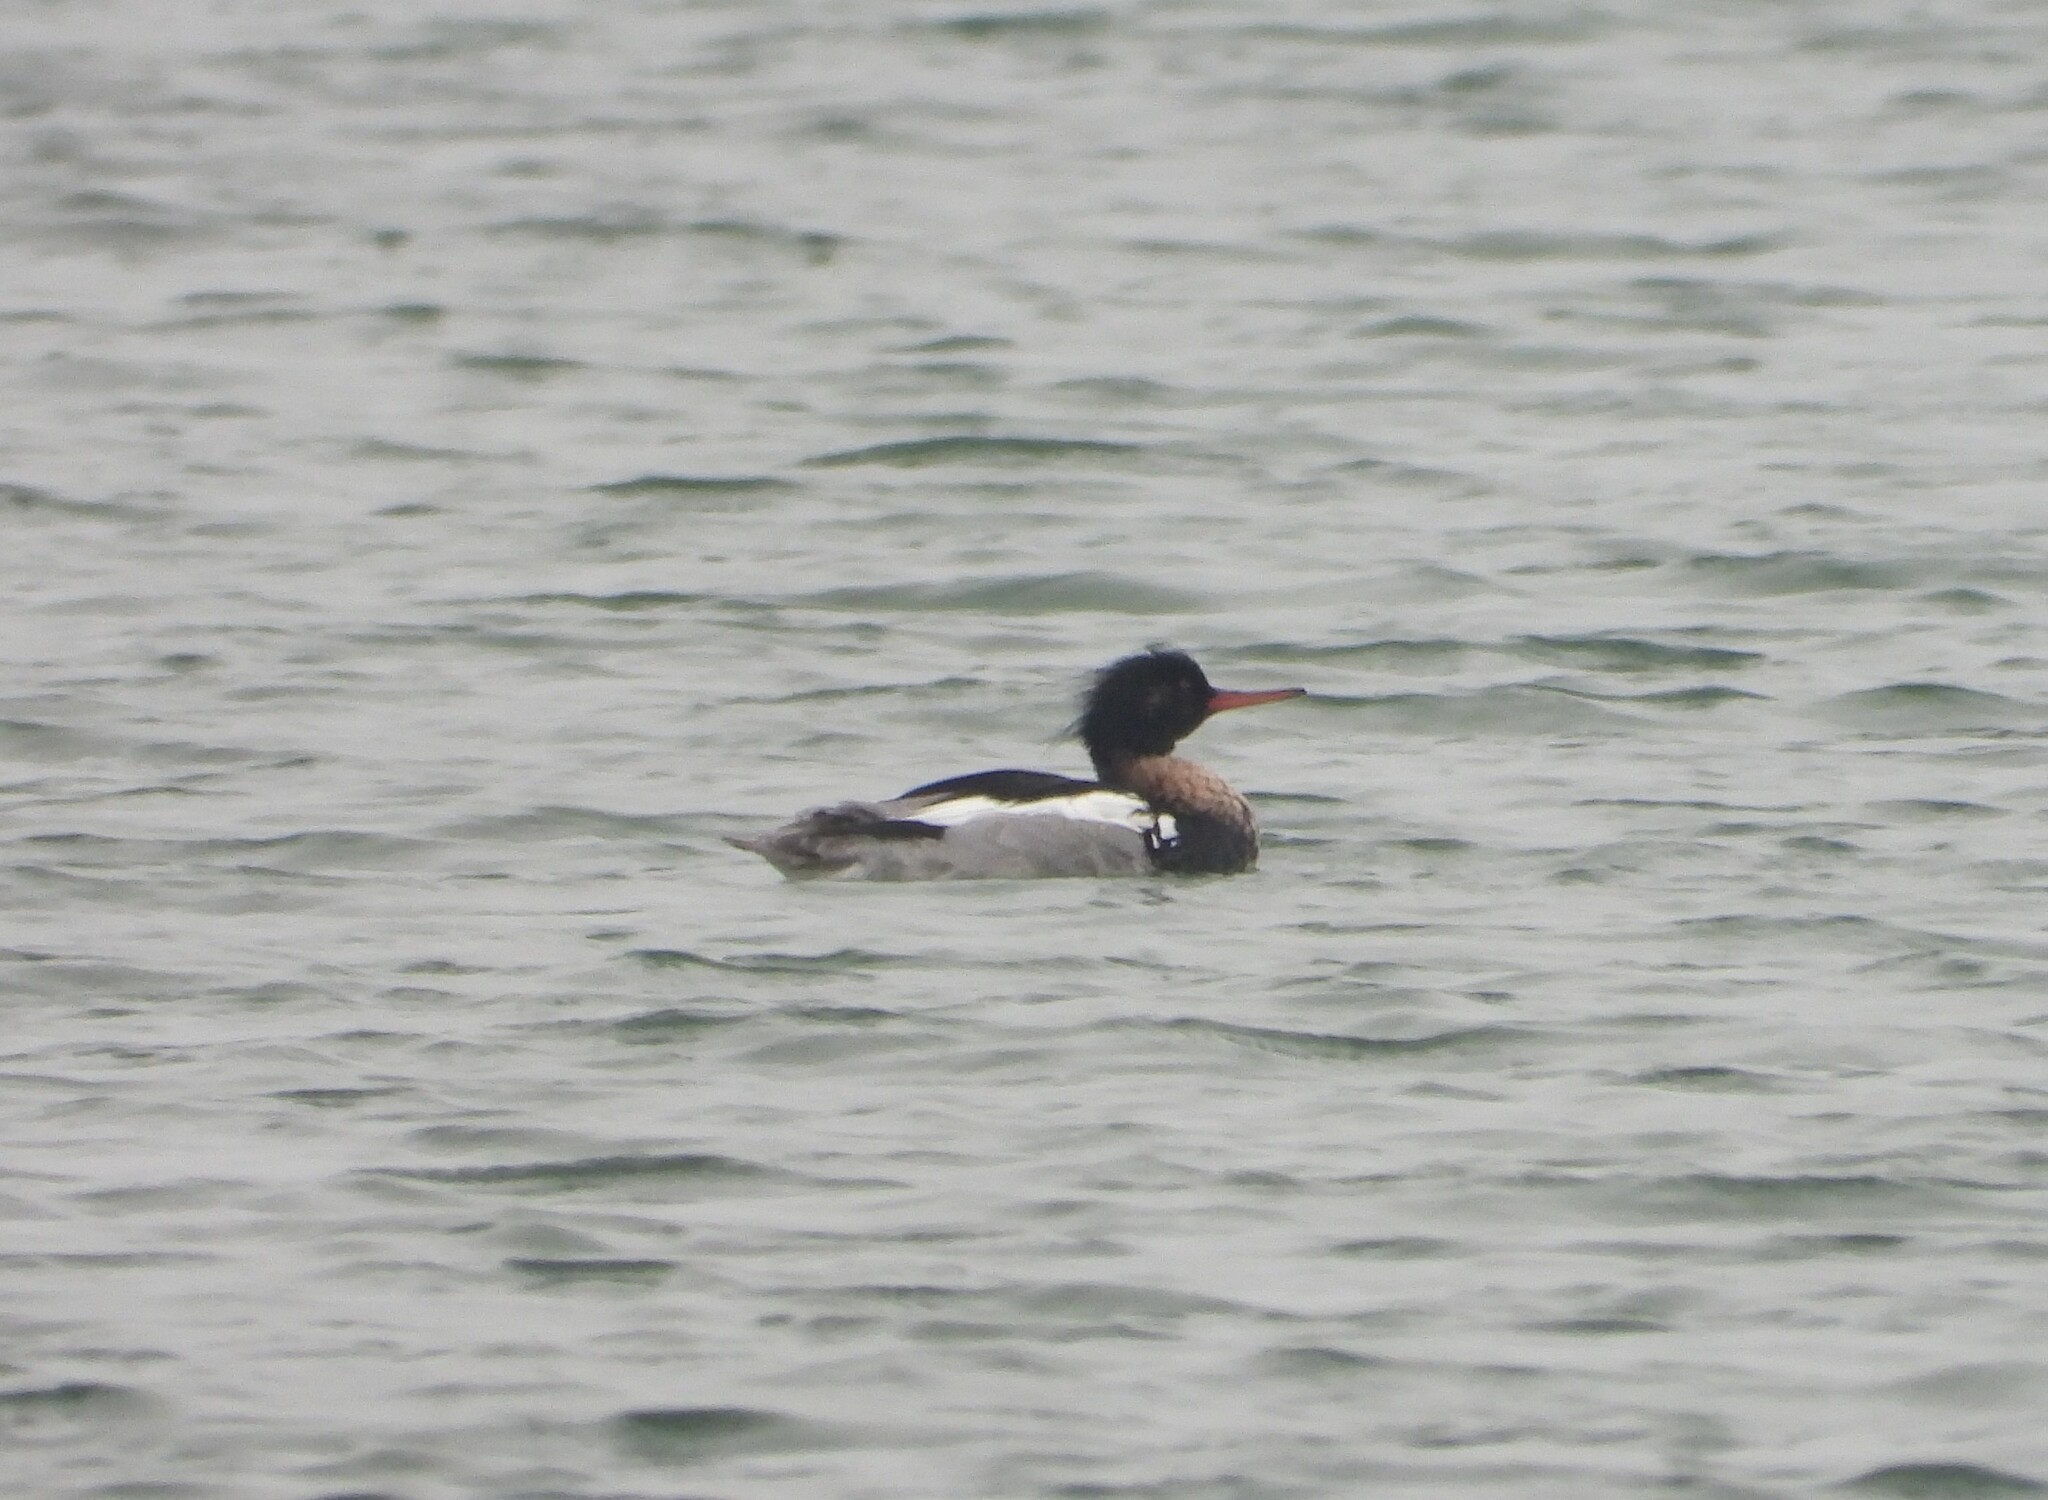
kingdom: Animalia
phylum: Chordata
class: Aves
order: Anseriformes
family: Anatidae
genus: Mergus
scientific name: Mergus serrator
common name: Red-breasted merganser
